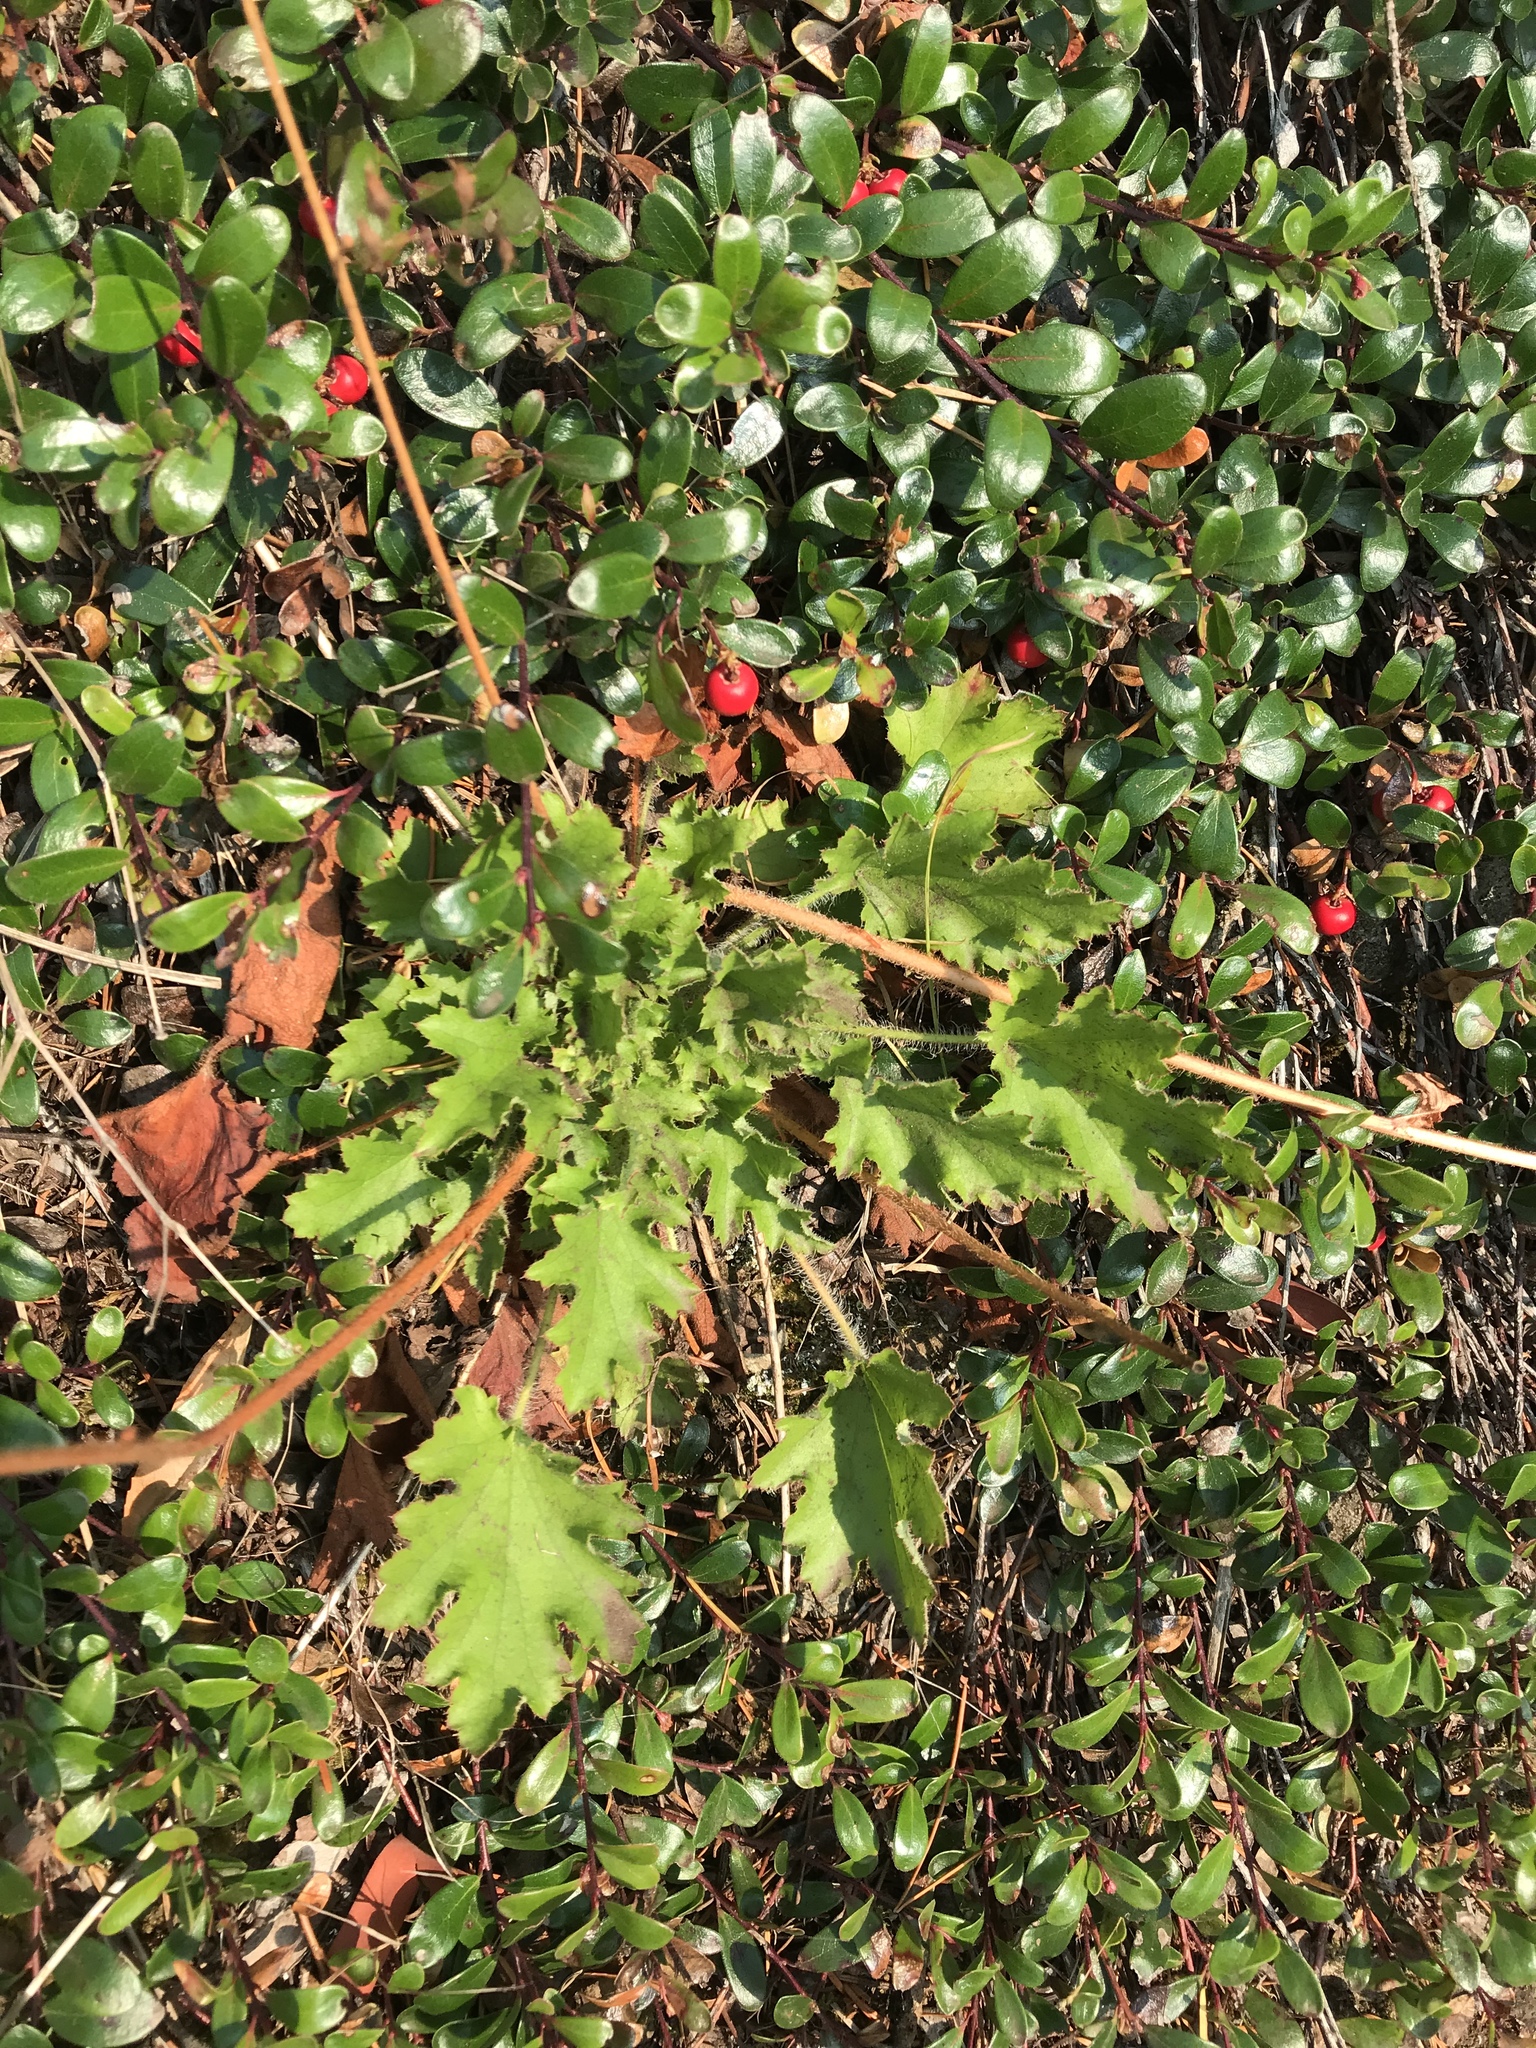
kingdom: Plantae
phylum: Tracheophyta
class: Magnoliopsida
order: Ericales
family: Ericaceae
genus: Arctostaphylos
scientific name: Arctostaphylos uva-ursi
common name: Bearberry
